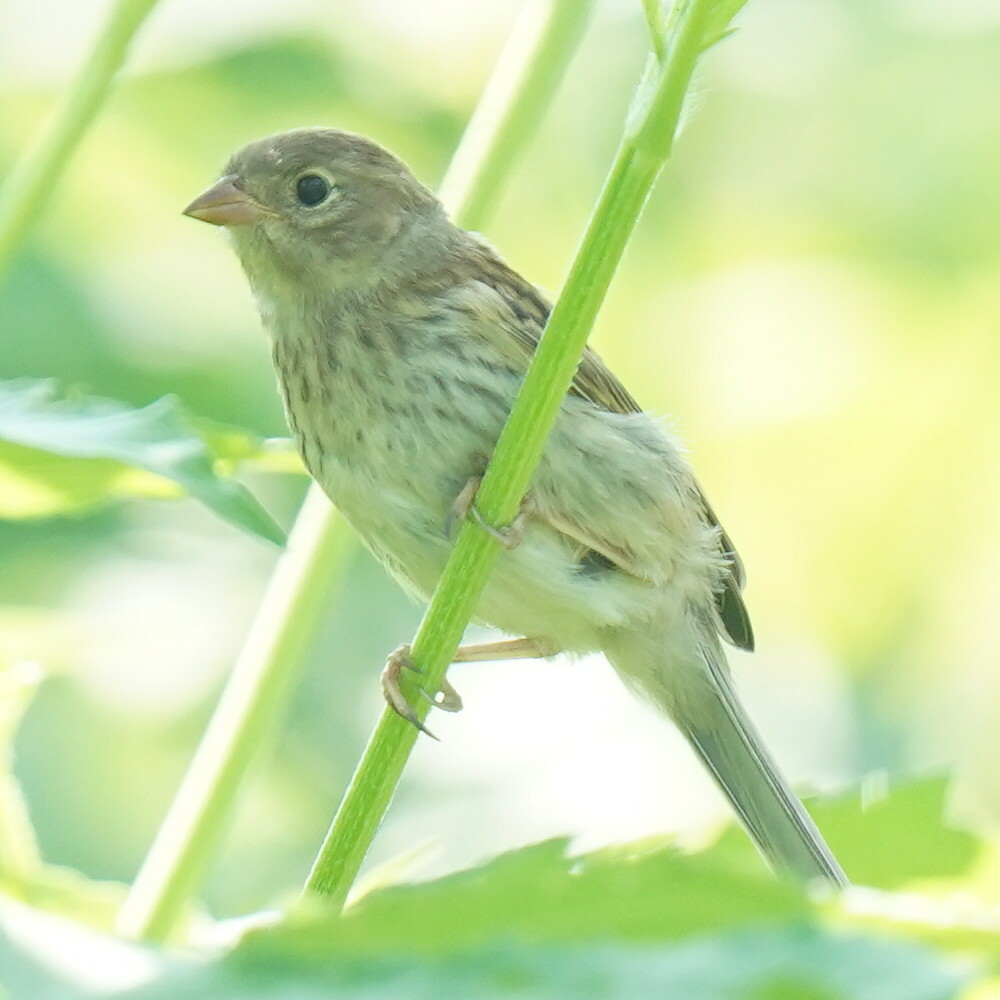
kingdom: Animalia
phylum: Chordata
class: Aves
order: Passeriformes
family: Passerellidae
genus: Spizella
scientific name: Spizella pusilla
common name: Field sparrow
